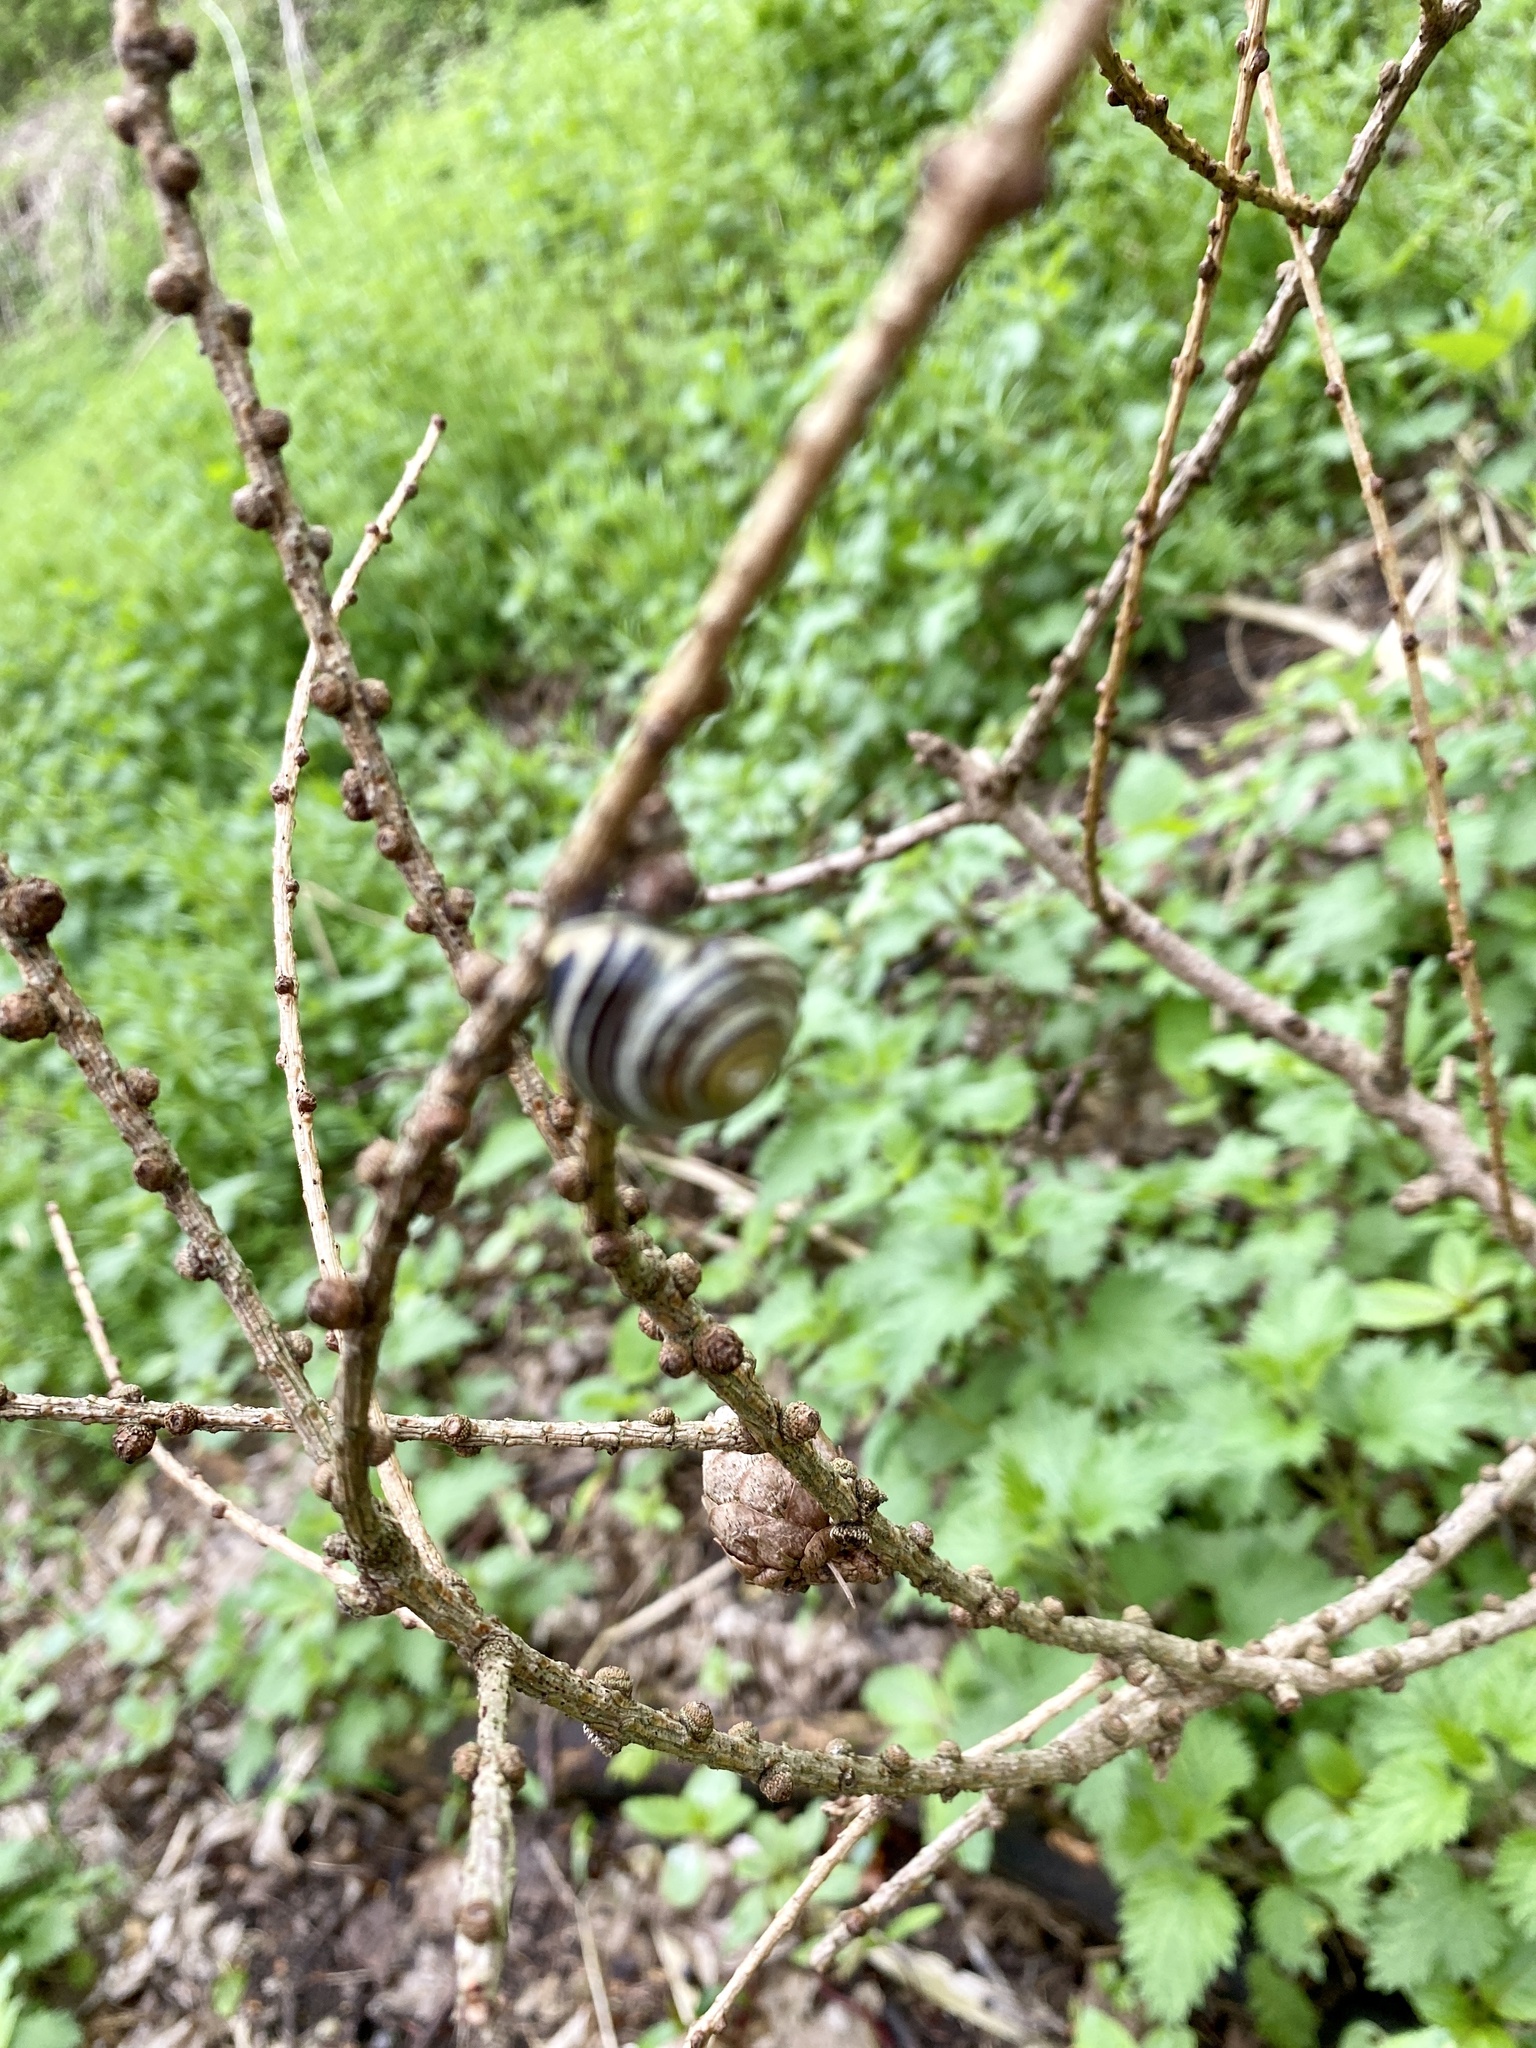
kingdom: Animalia
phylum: Mollusca
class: Gastropoda
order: Stylommatophora
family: Helicidae
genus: Cepaea
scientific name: Cepaea nemoralis
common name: Grovesnail
